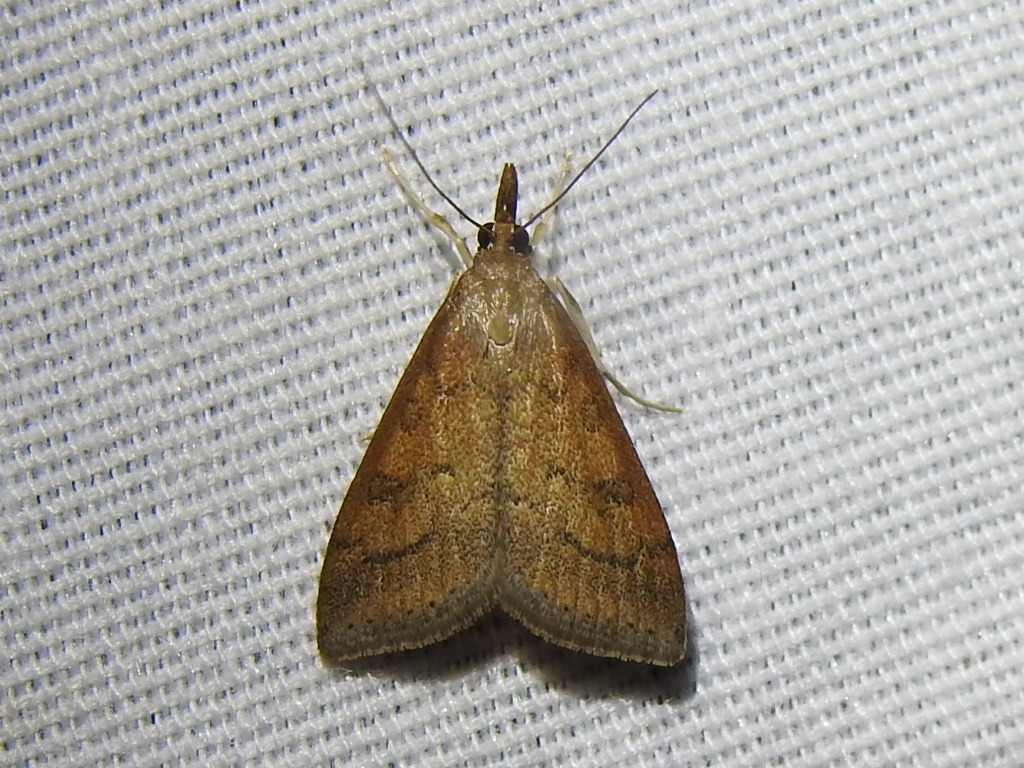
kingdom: Animalia
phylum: Arthropoda
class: Insecta
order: Lepidoptera
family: Crambidae
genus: Udea
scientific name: Udea rubigalis
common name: Celery leaftier moth
